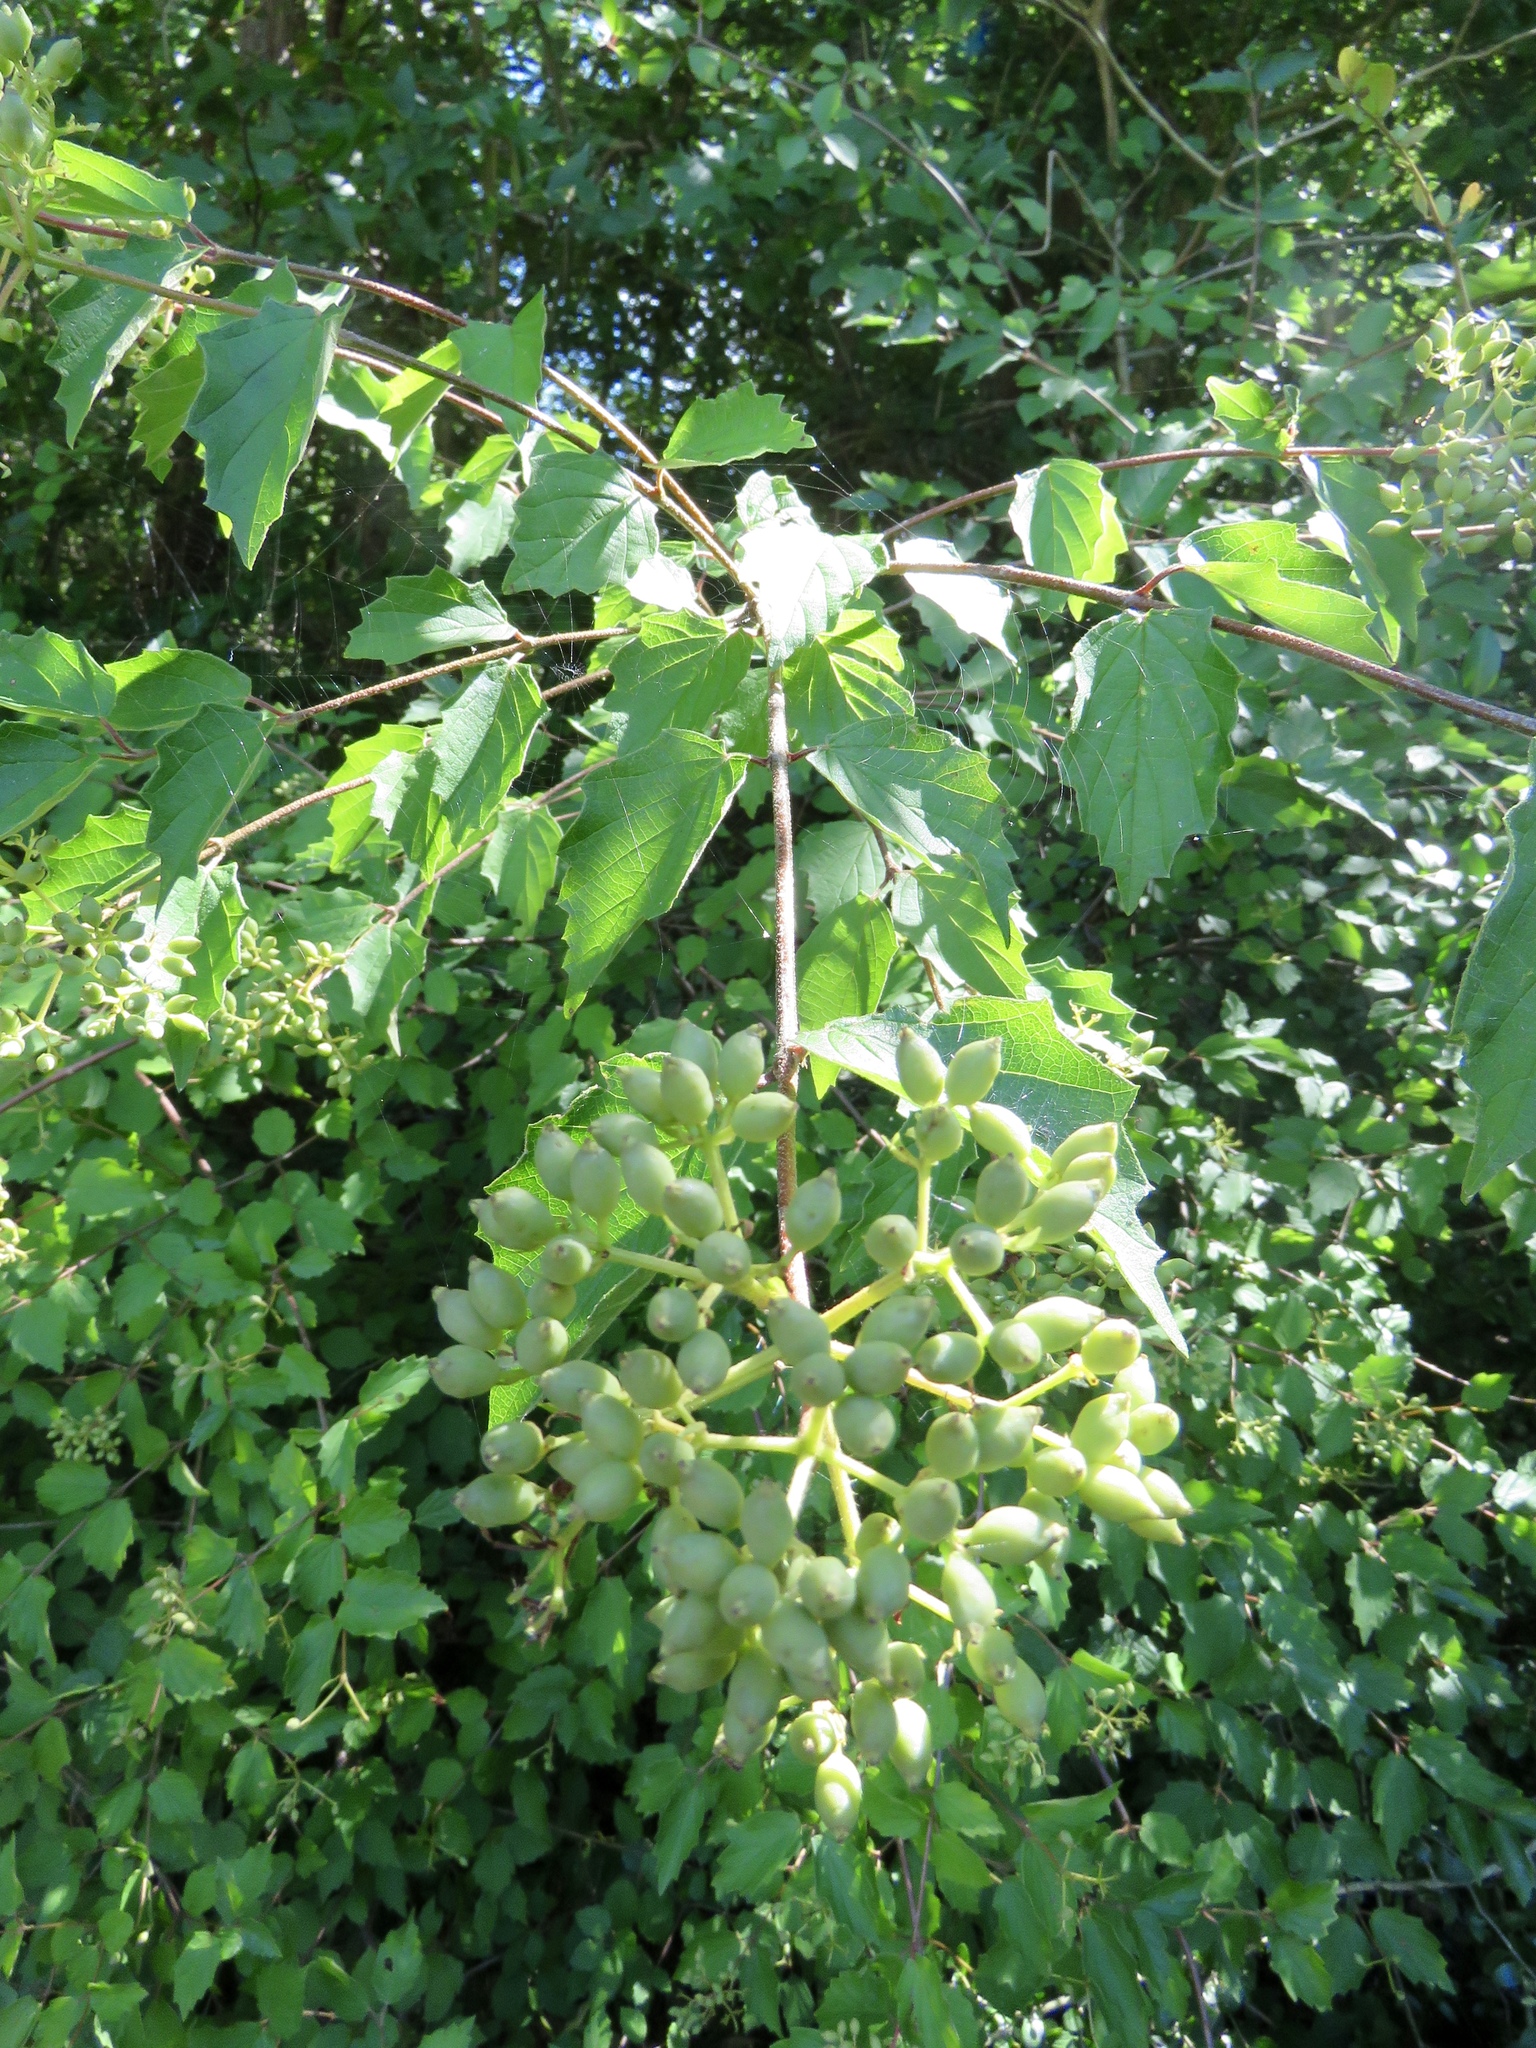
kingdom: Plantae
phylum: Tracheophyta
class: Magnoliopsida
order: Dipsacales
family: Viburnaceae
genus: Viburnum
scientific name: Viburnum scabrellum
